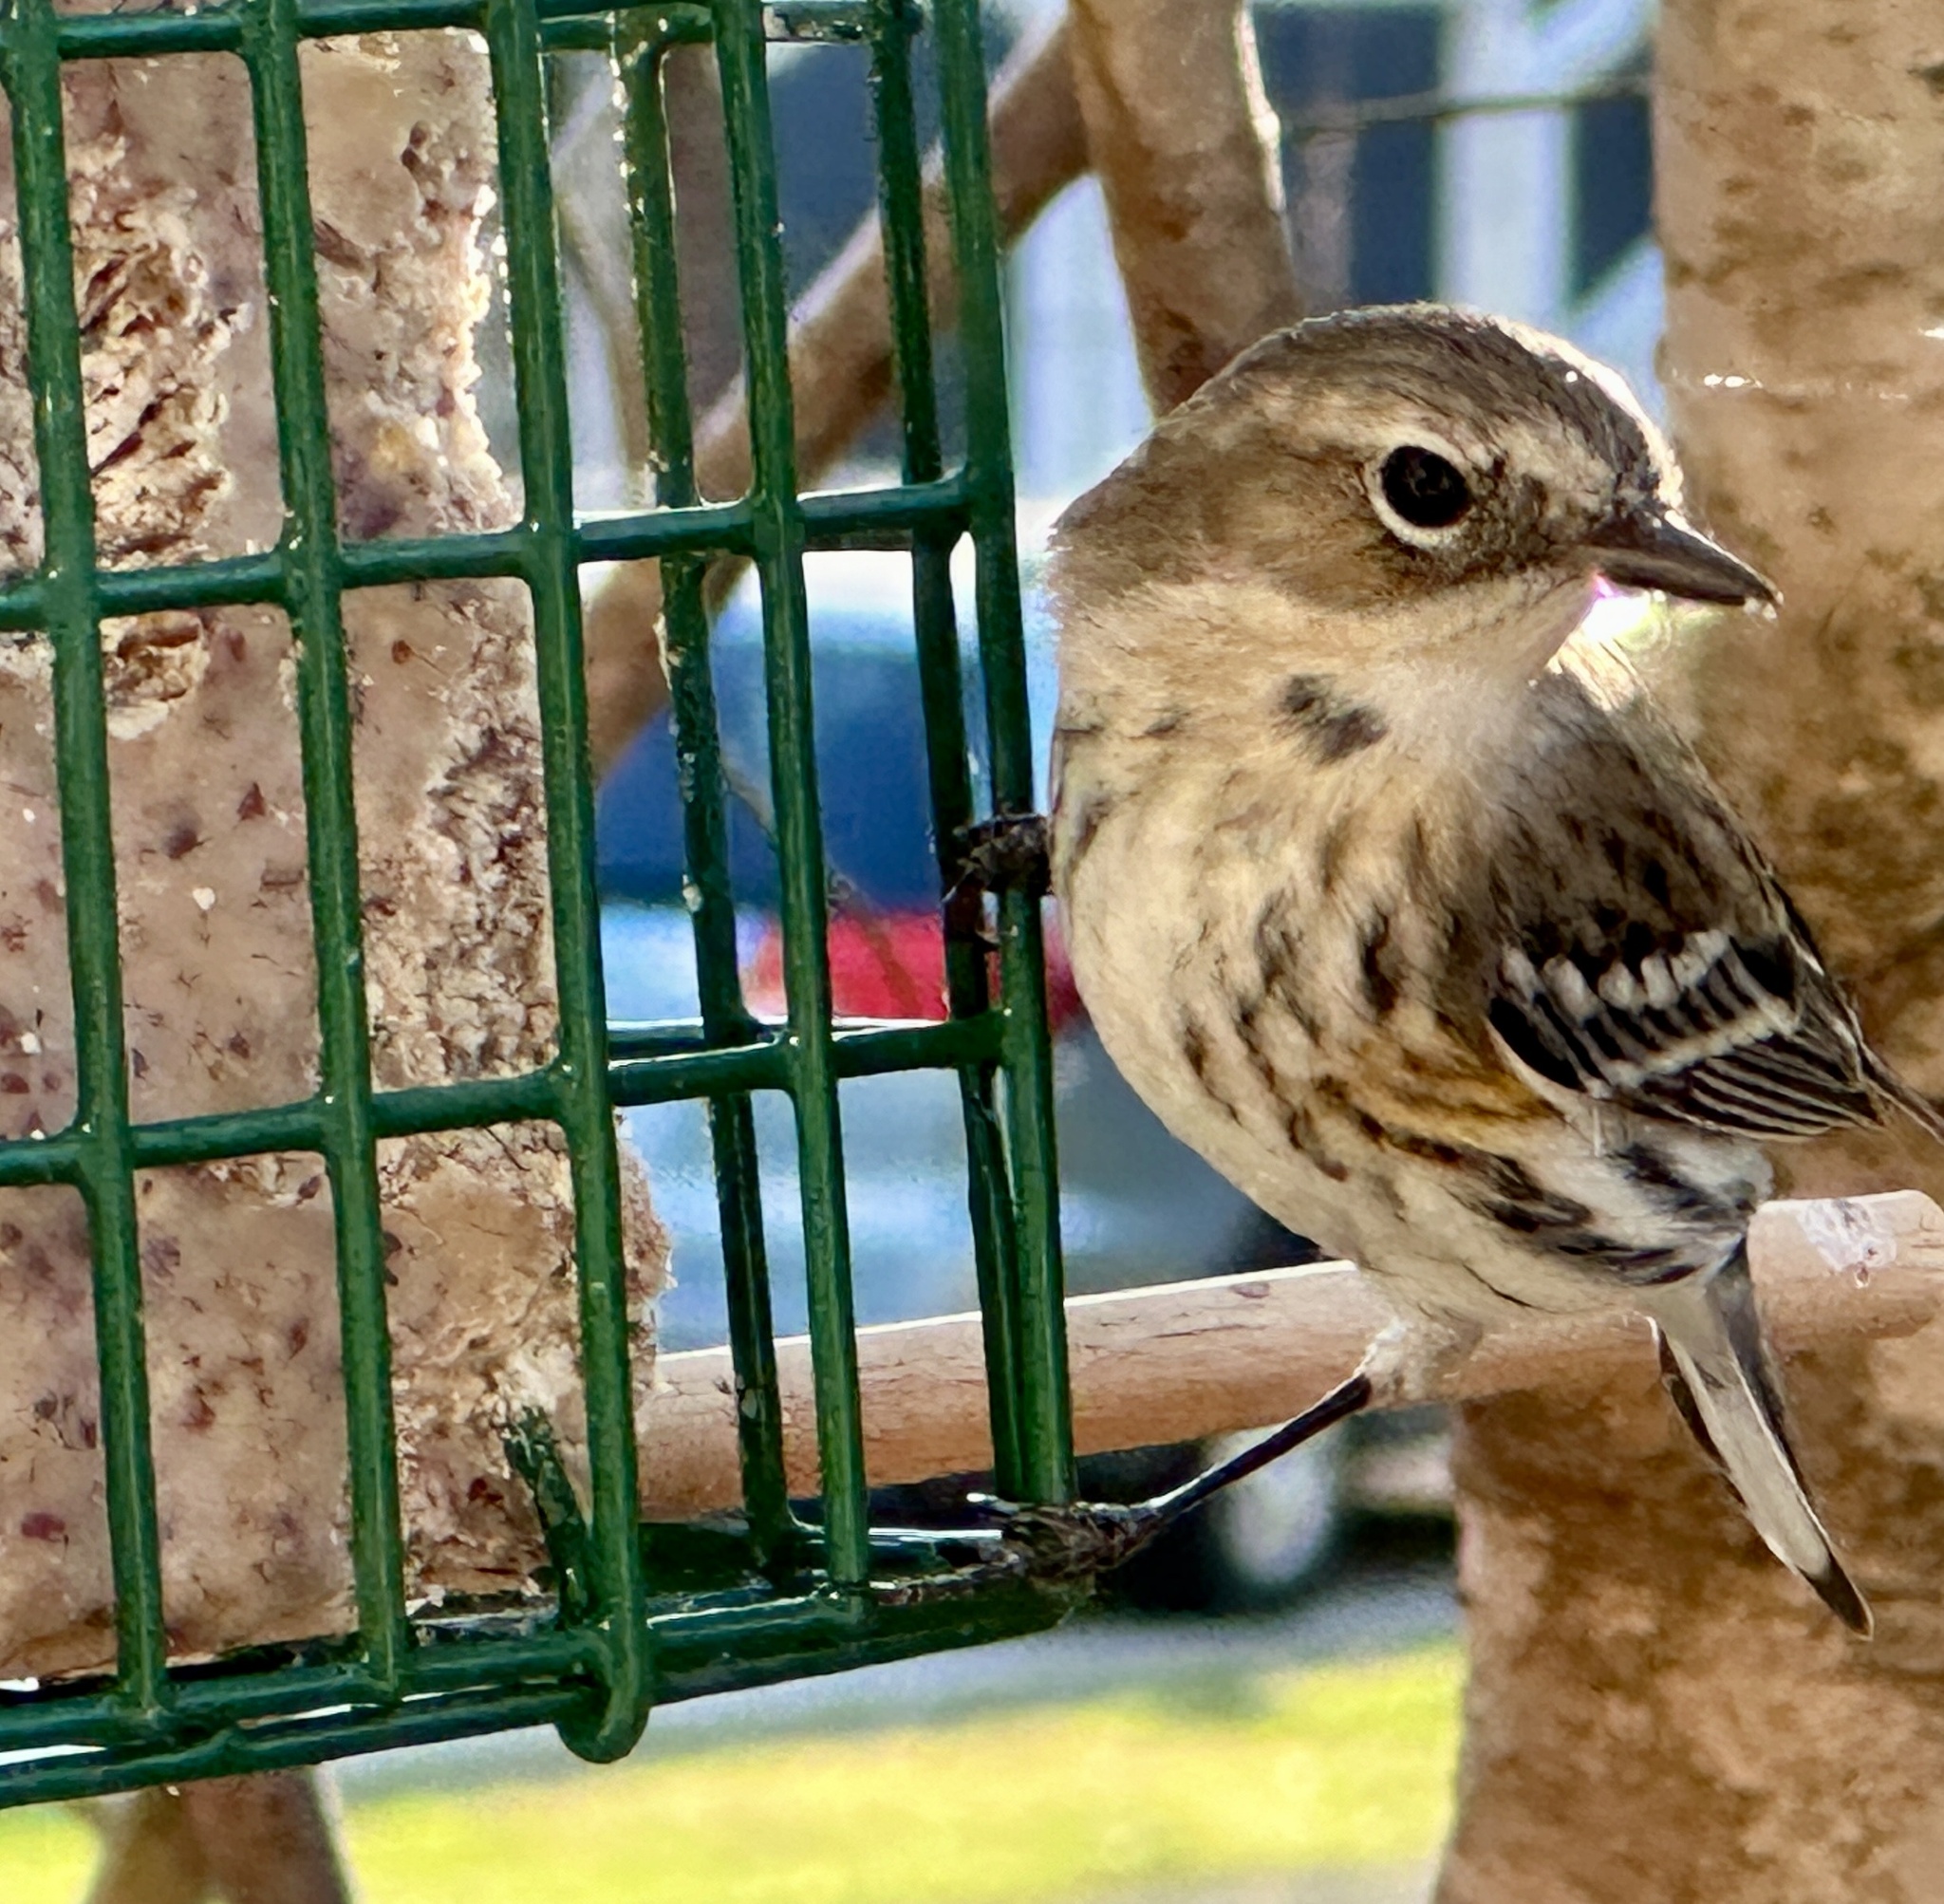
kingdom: Animalia
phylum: Chordata
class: Aves
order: Passeriformes
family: Parulidae
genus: Setophaga
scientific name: Setophaga coronata
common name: Myrtle warbler
